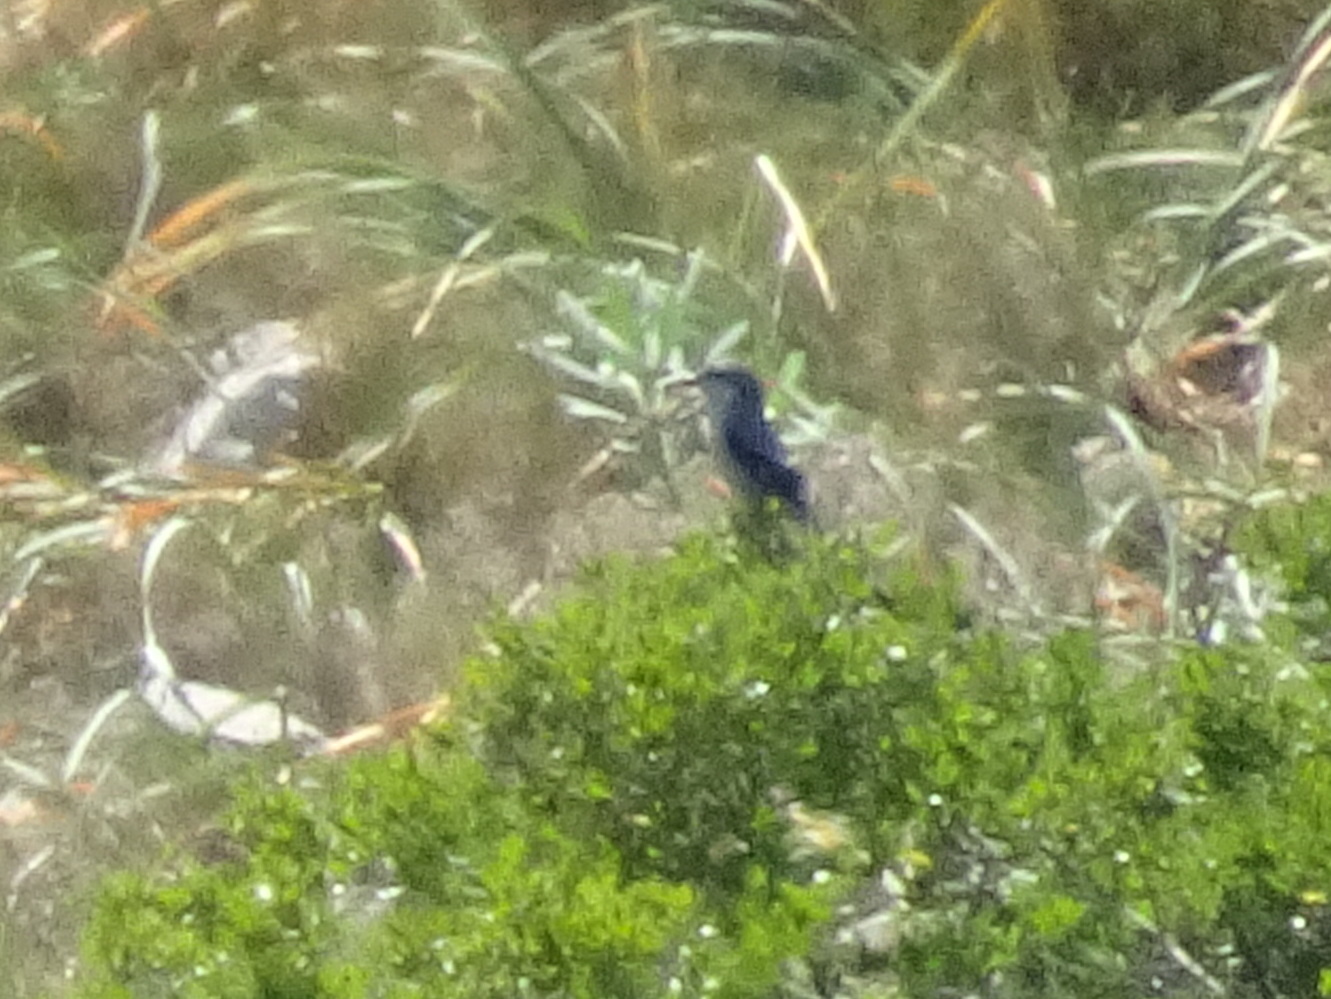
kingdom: Animalia
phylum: Chordata
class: Aves
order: Passeriformes
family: Laniidae
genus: Lanius
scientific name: Lanius meridionalis
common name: Iberian grey shrike
